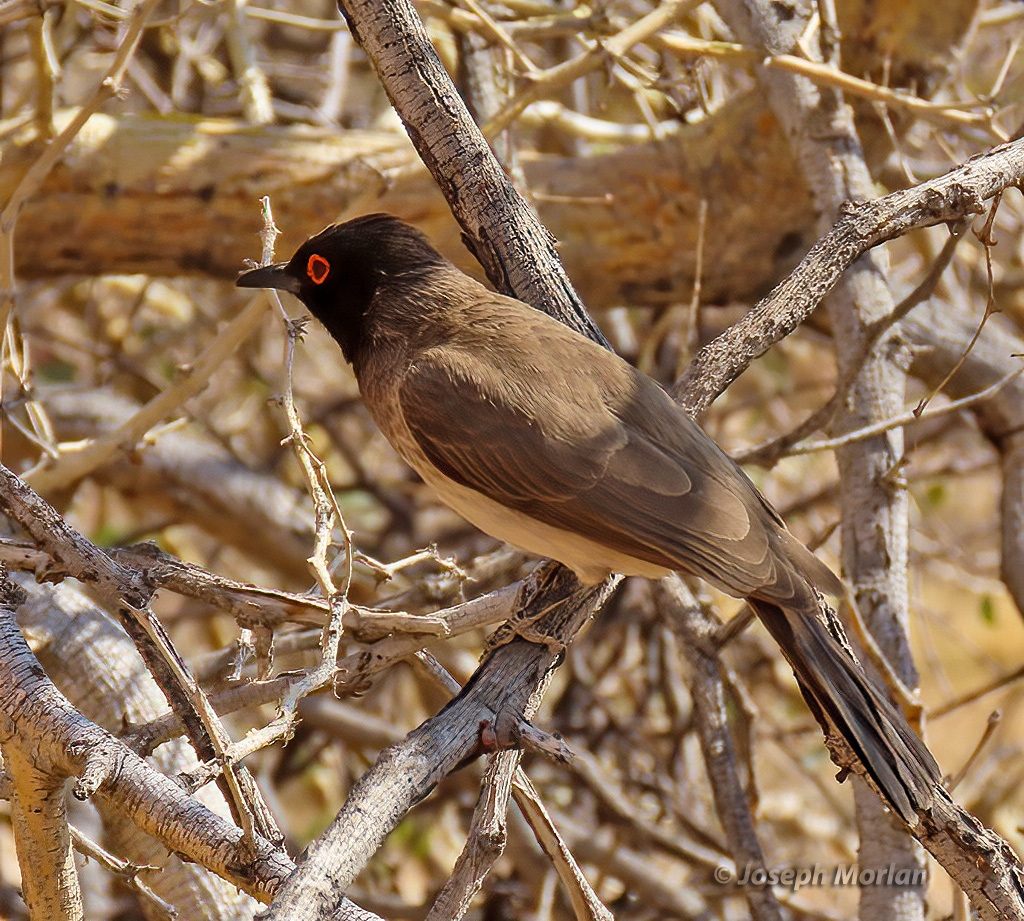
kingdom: Animalia
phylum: Chordata
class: Aves
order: Passeriformes
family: Pycnonotidae
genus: Pycnonotus
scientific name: Pycnonotus nigricans
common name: African red-eyed bulbul
